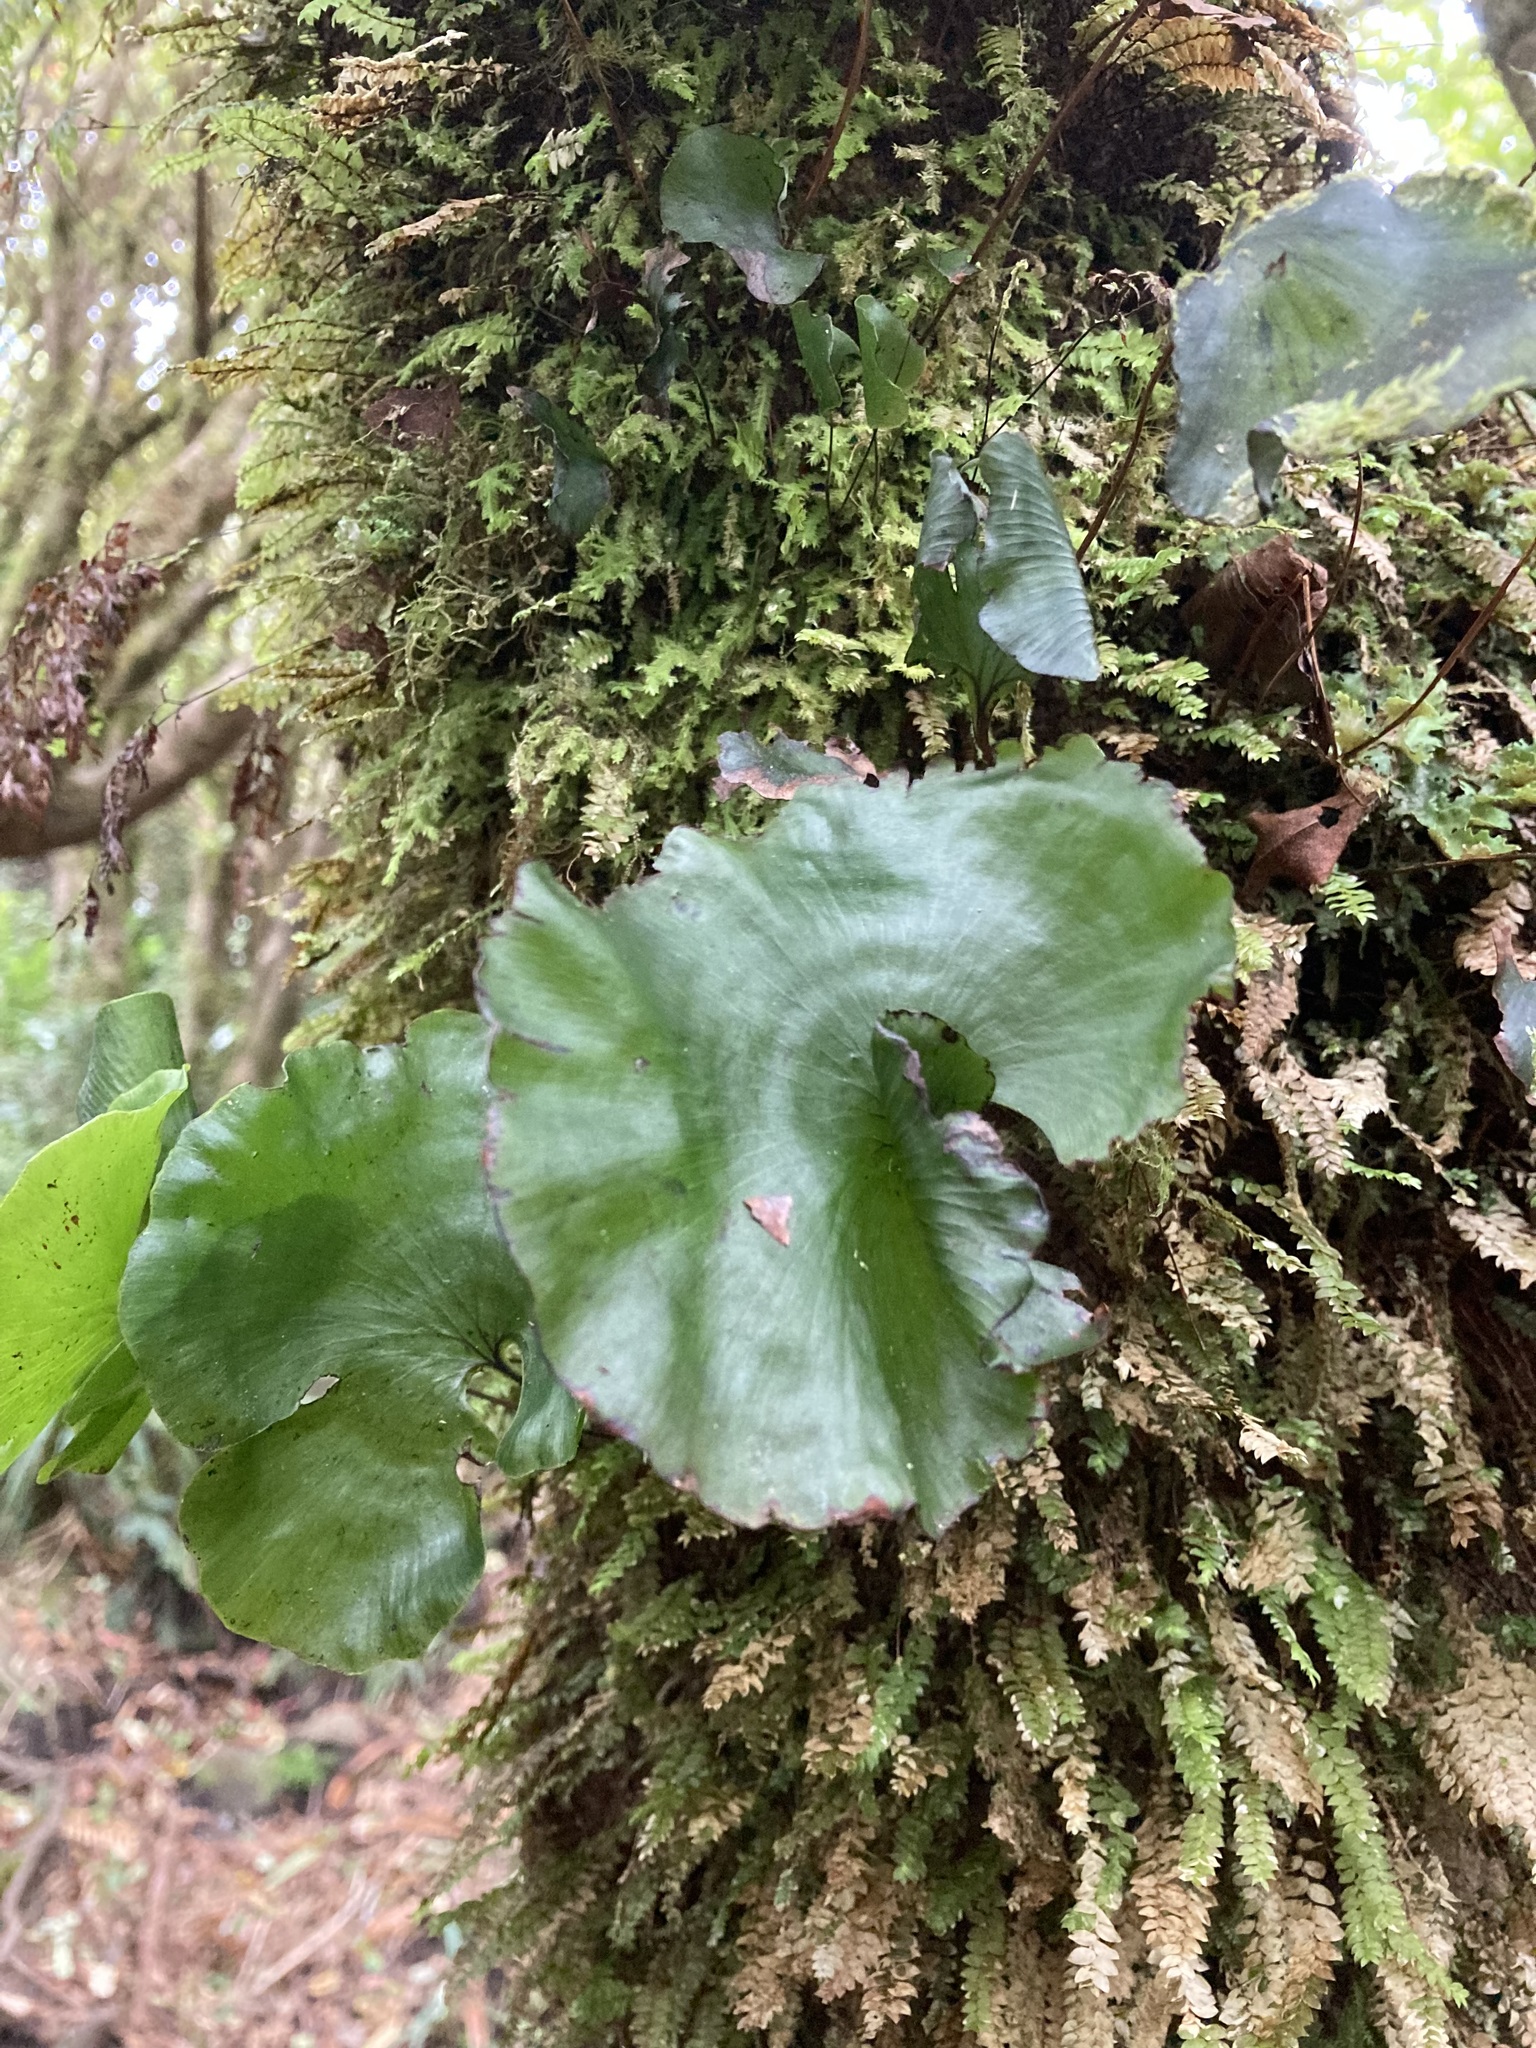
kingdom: Plantae
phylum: Tracheophyta
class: Polypodiopsida
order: Hymenophyllales
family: Hymenophyllaceae
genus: Hymenophyllum
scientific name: Hymenophyllum nephrophyllum
